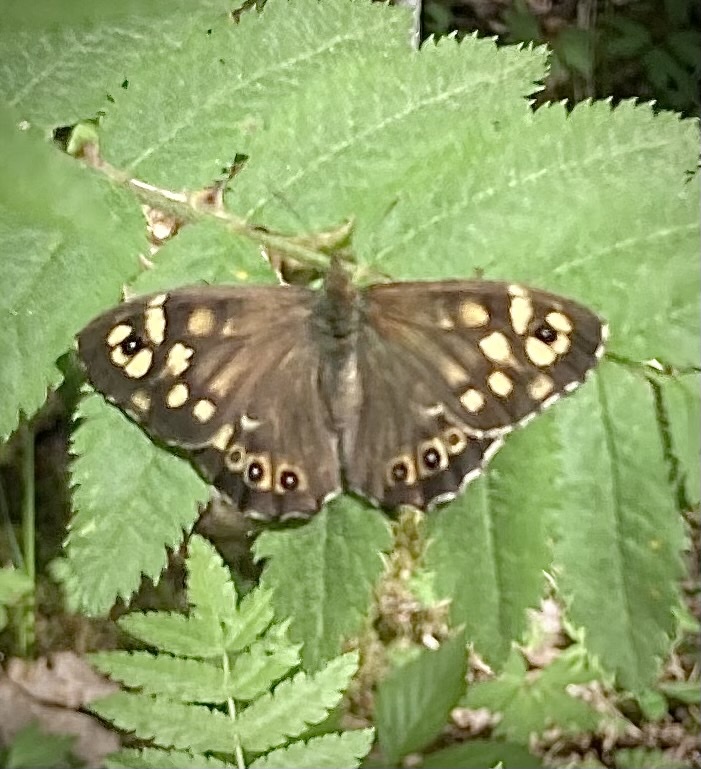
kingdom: Animalia
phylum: Arthropoda
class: Insecta
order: Lepidoptera
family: Nymphalidae
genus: Pararge
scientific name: Pararge aegeria
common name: Speckled wood
